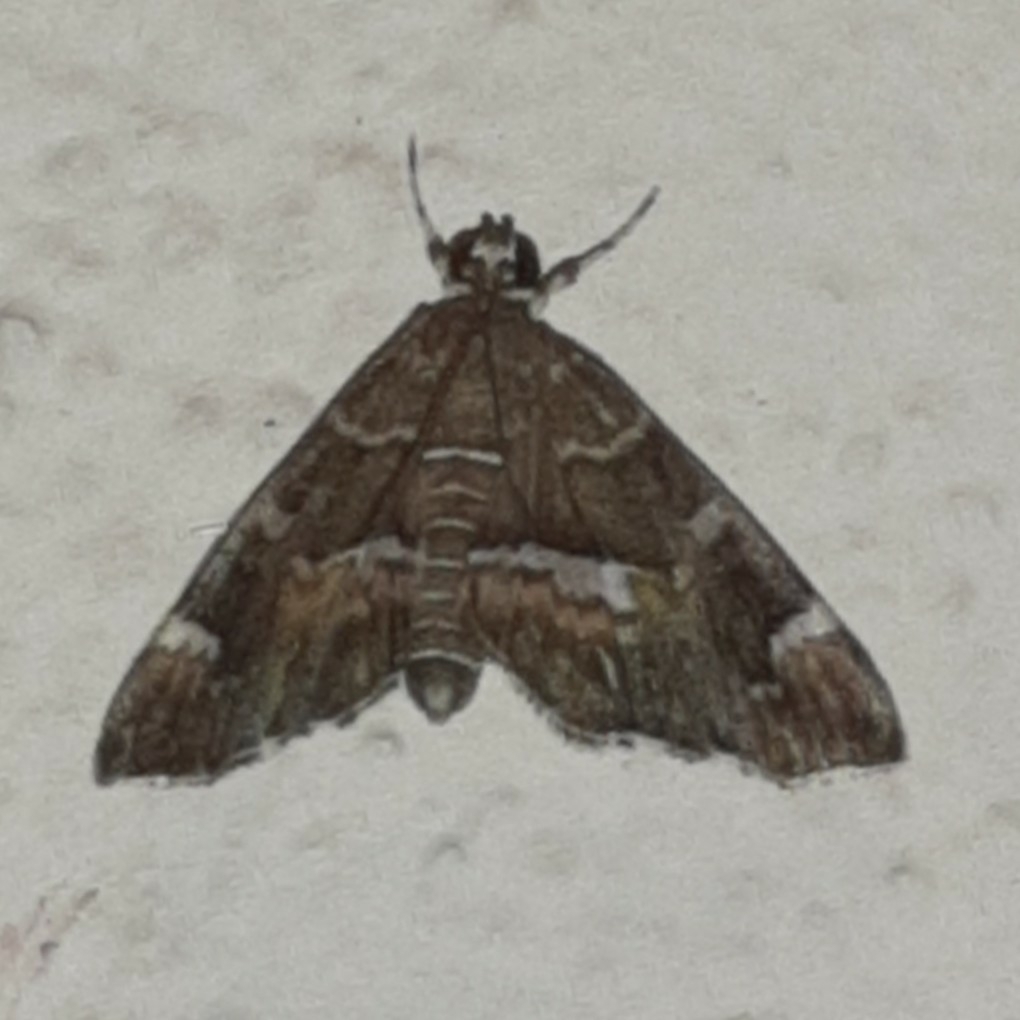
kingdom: Animalia
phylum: Arthropoda
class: Insecta
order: Lepidoptera
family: Crambidae
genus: Hymenia
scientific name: Hymenia perspectalis
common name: Spotted beet webworm
